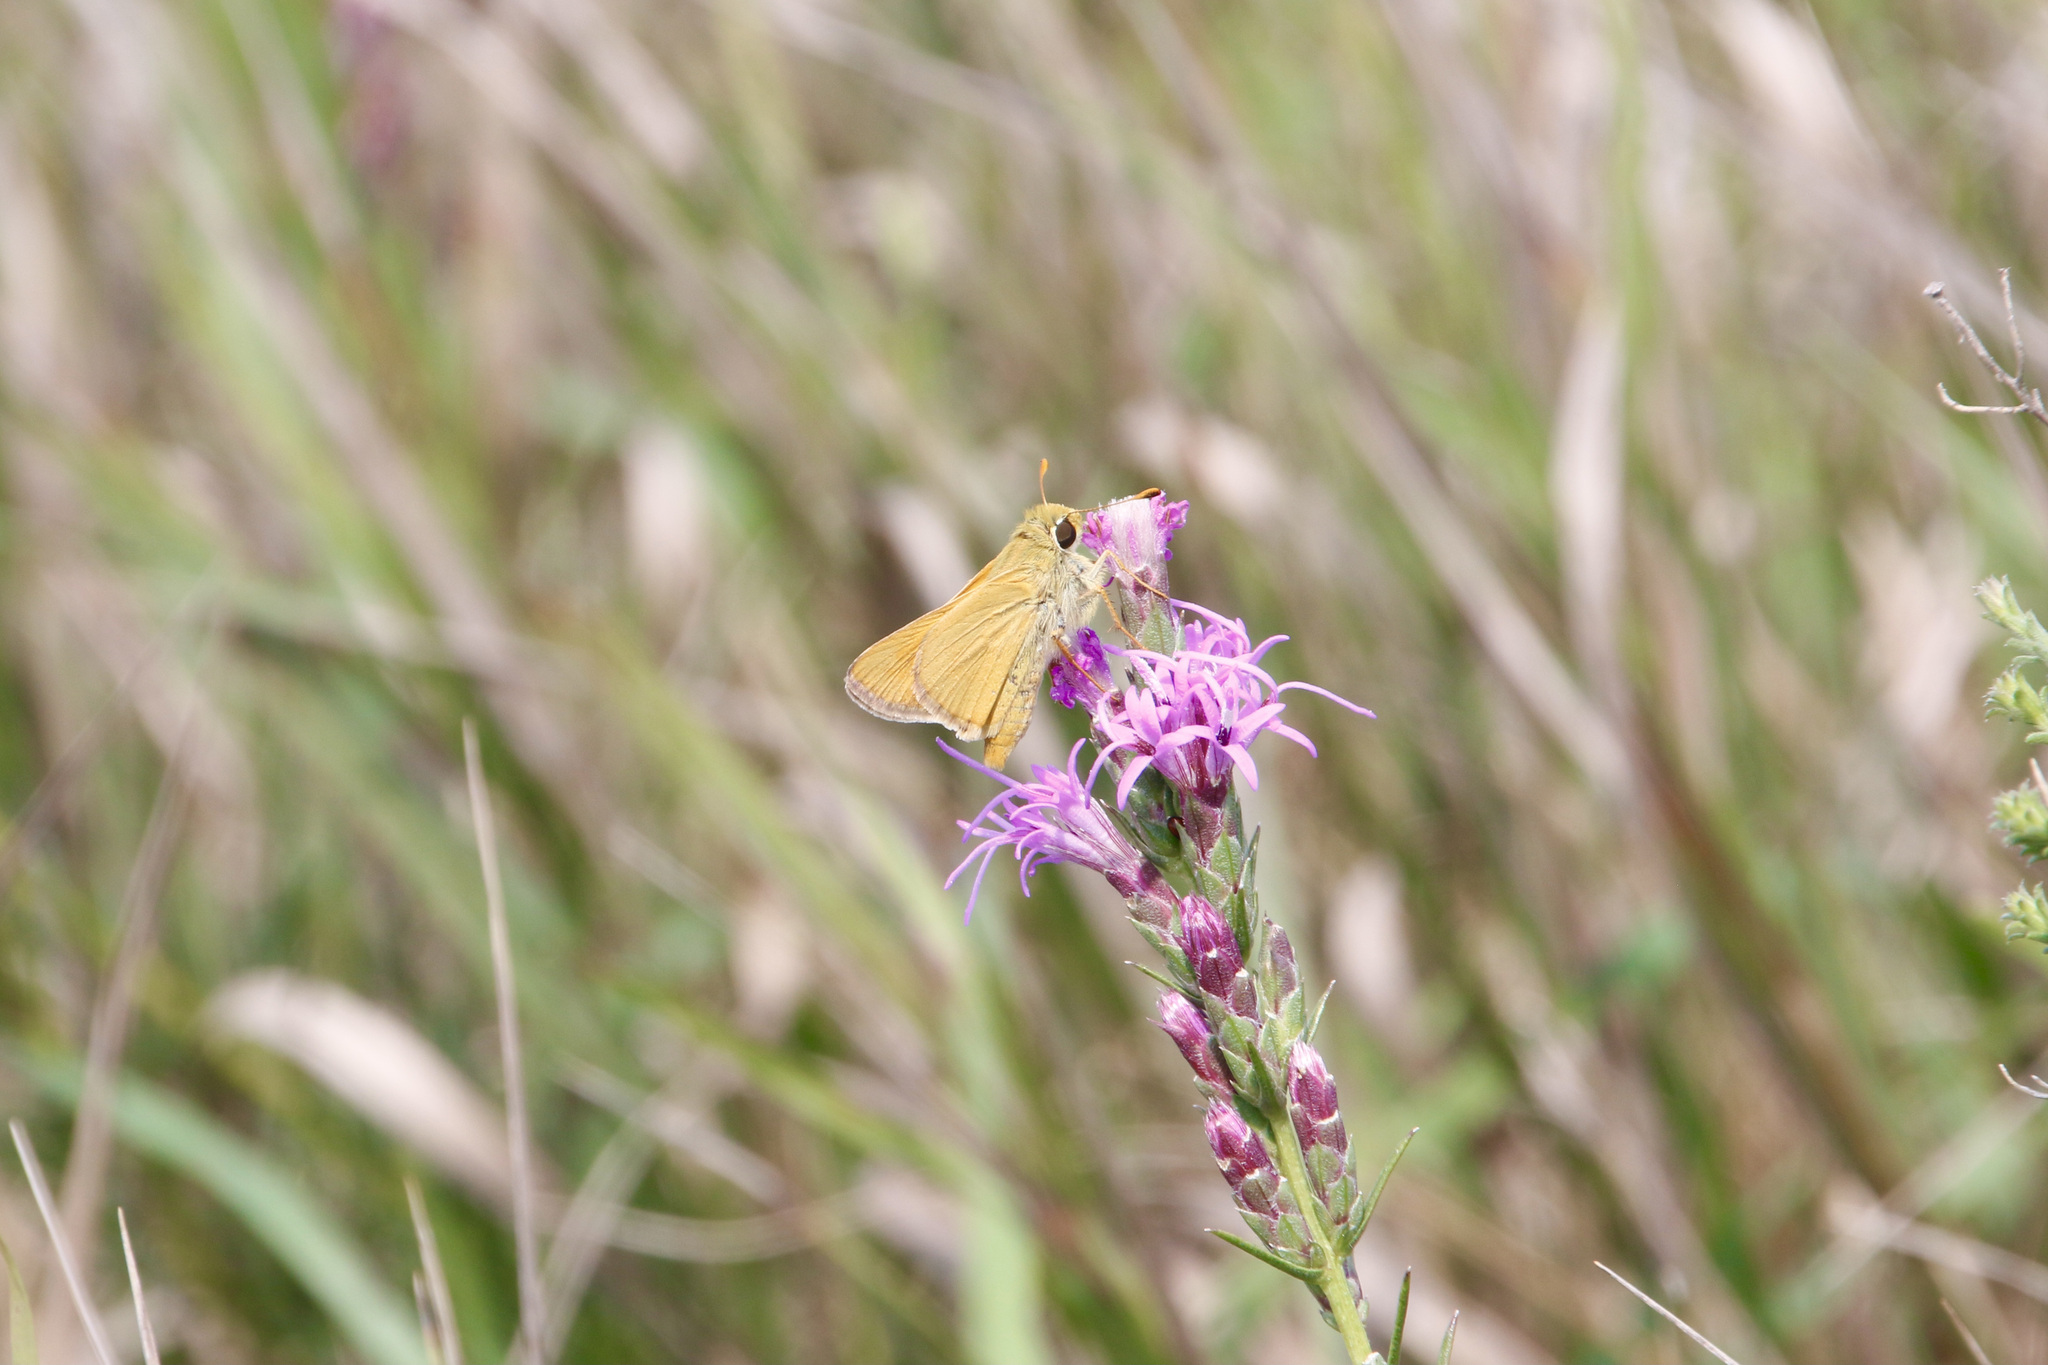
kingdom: Animalia
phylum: Arthropoda
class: Insecta
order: Lepidoptera
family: Hesperiidae
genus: Hesperia
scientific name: Hesperia leonardus
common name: Leonard's skipper
